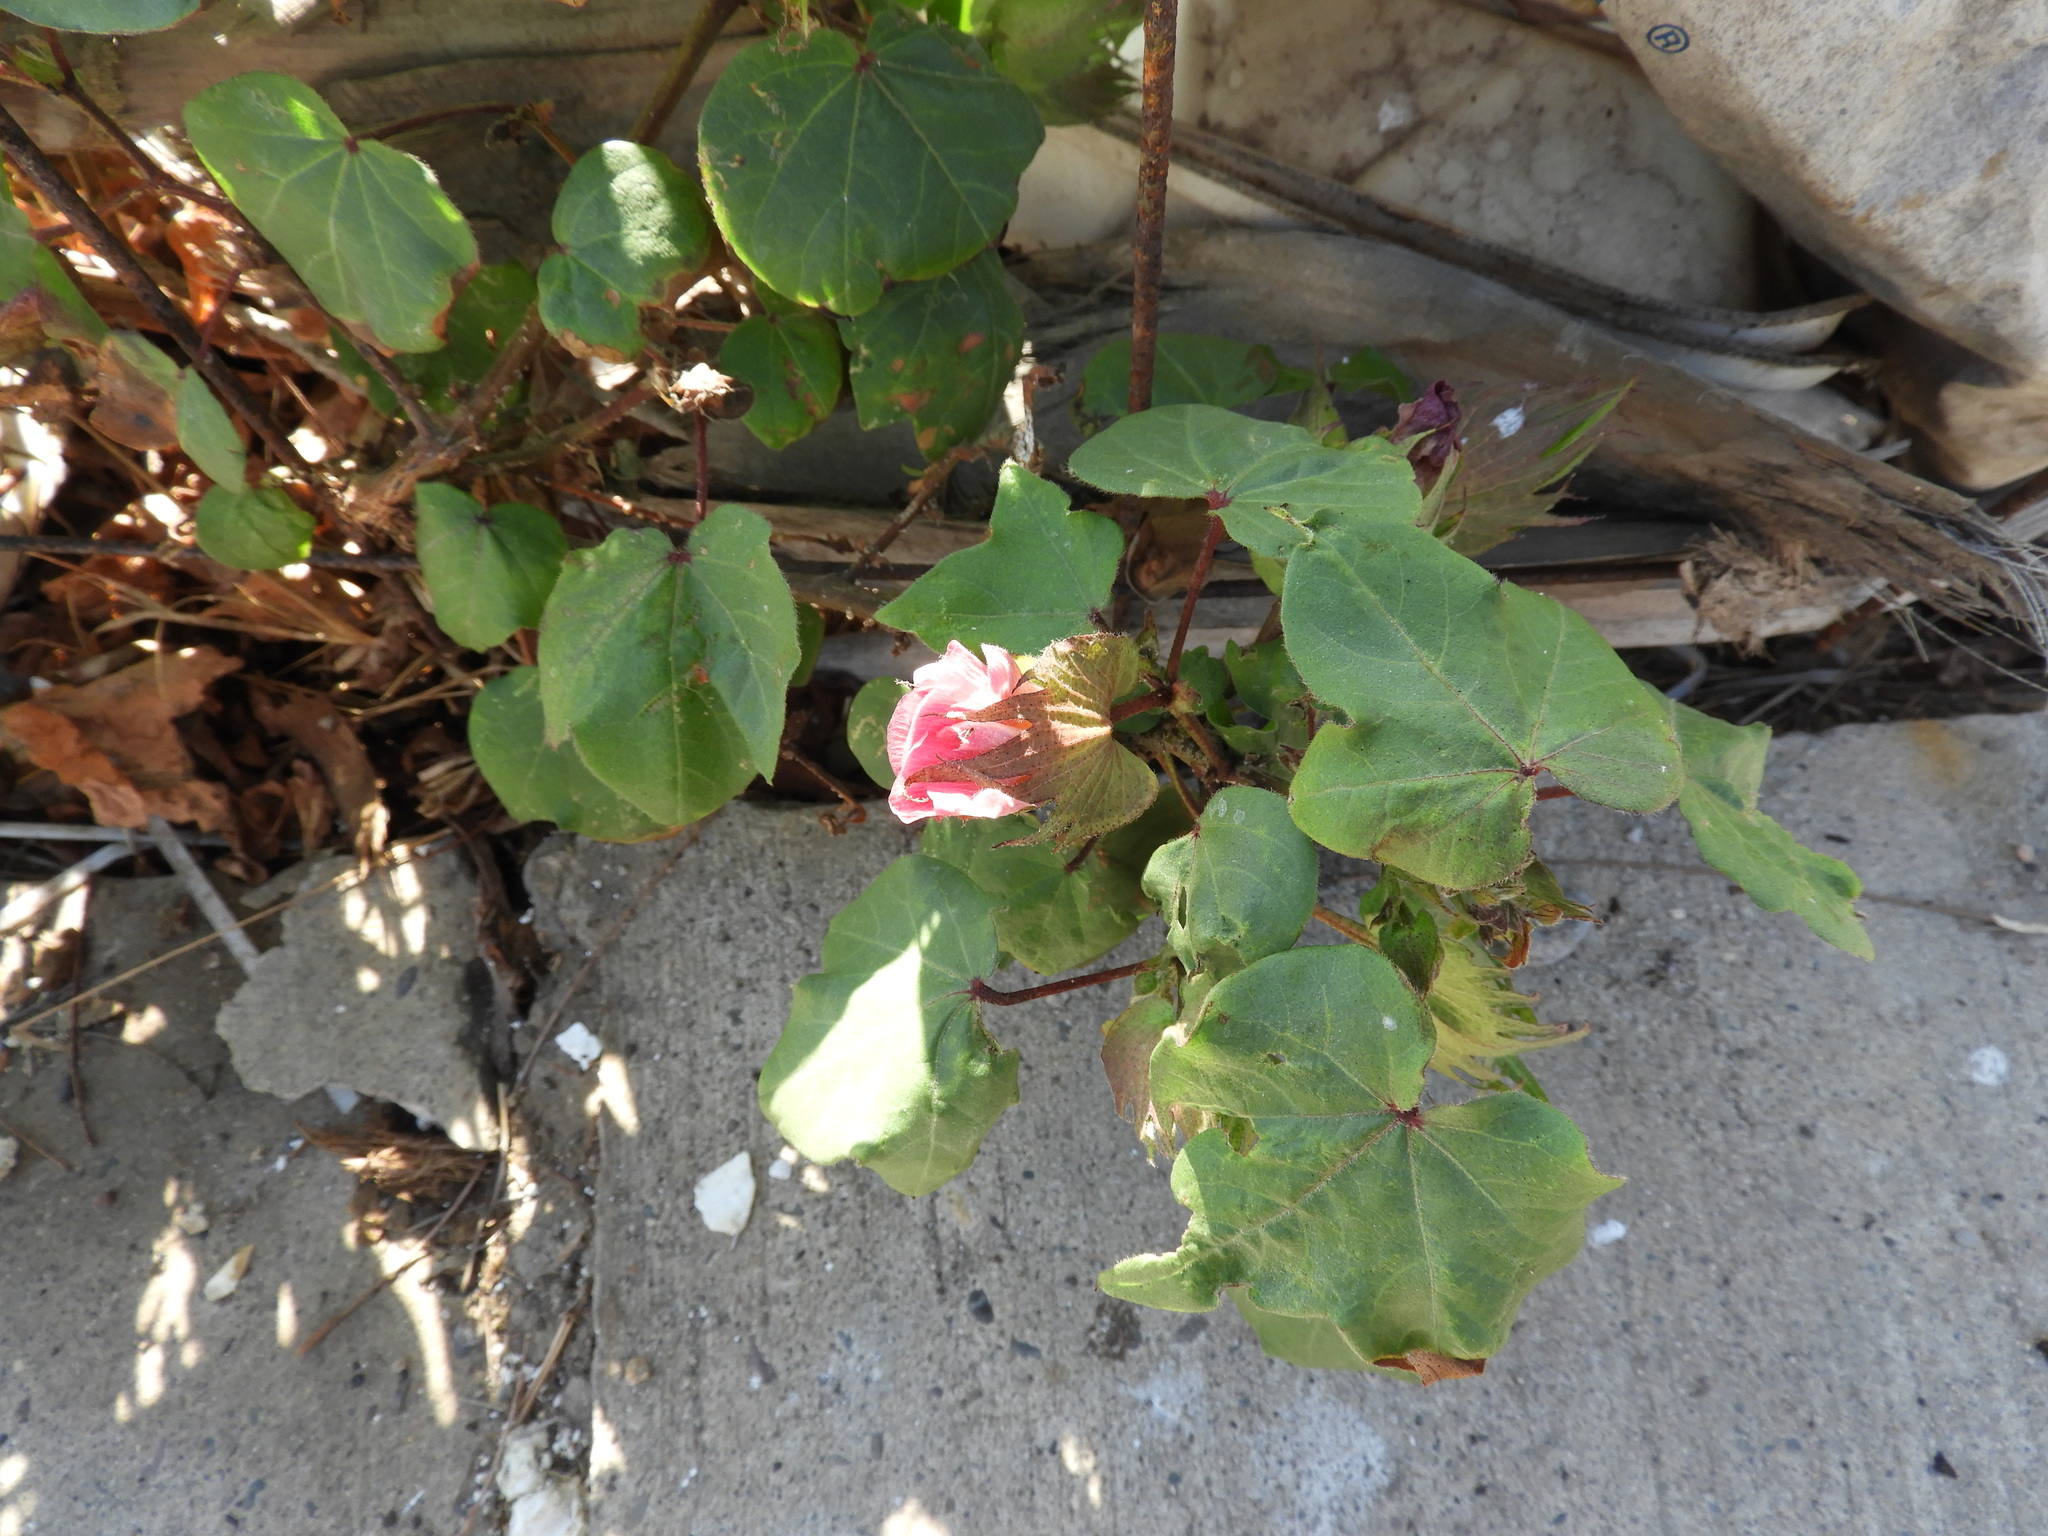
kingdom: Plantae
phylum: Tracheophyta
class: Magnoliopsida
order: Malvales
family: Malvaceae
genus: Gossypium
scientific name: Gossypium hirsutum
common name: Cotton
